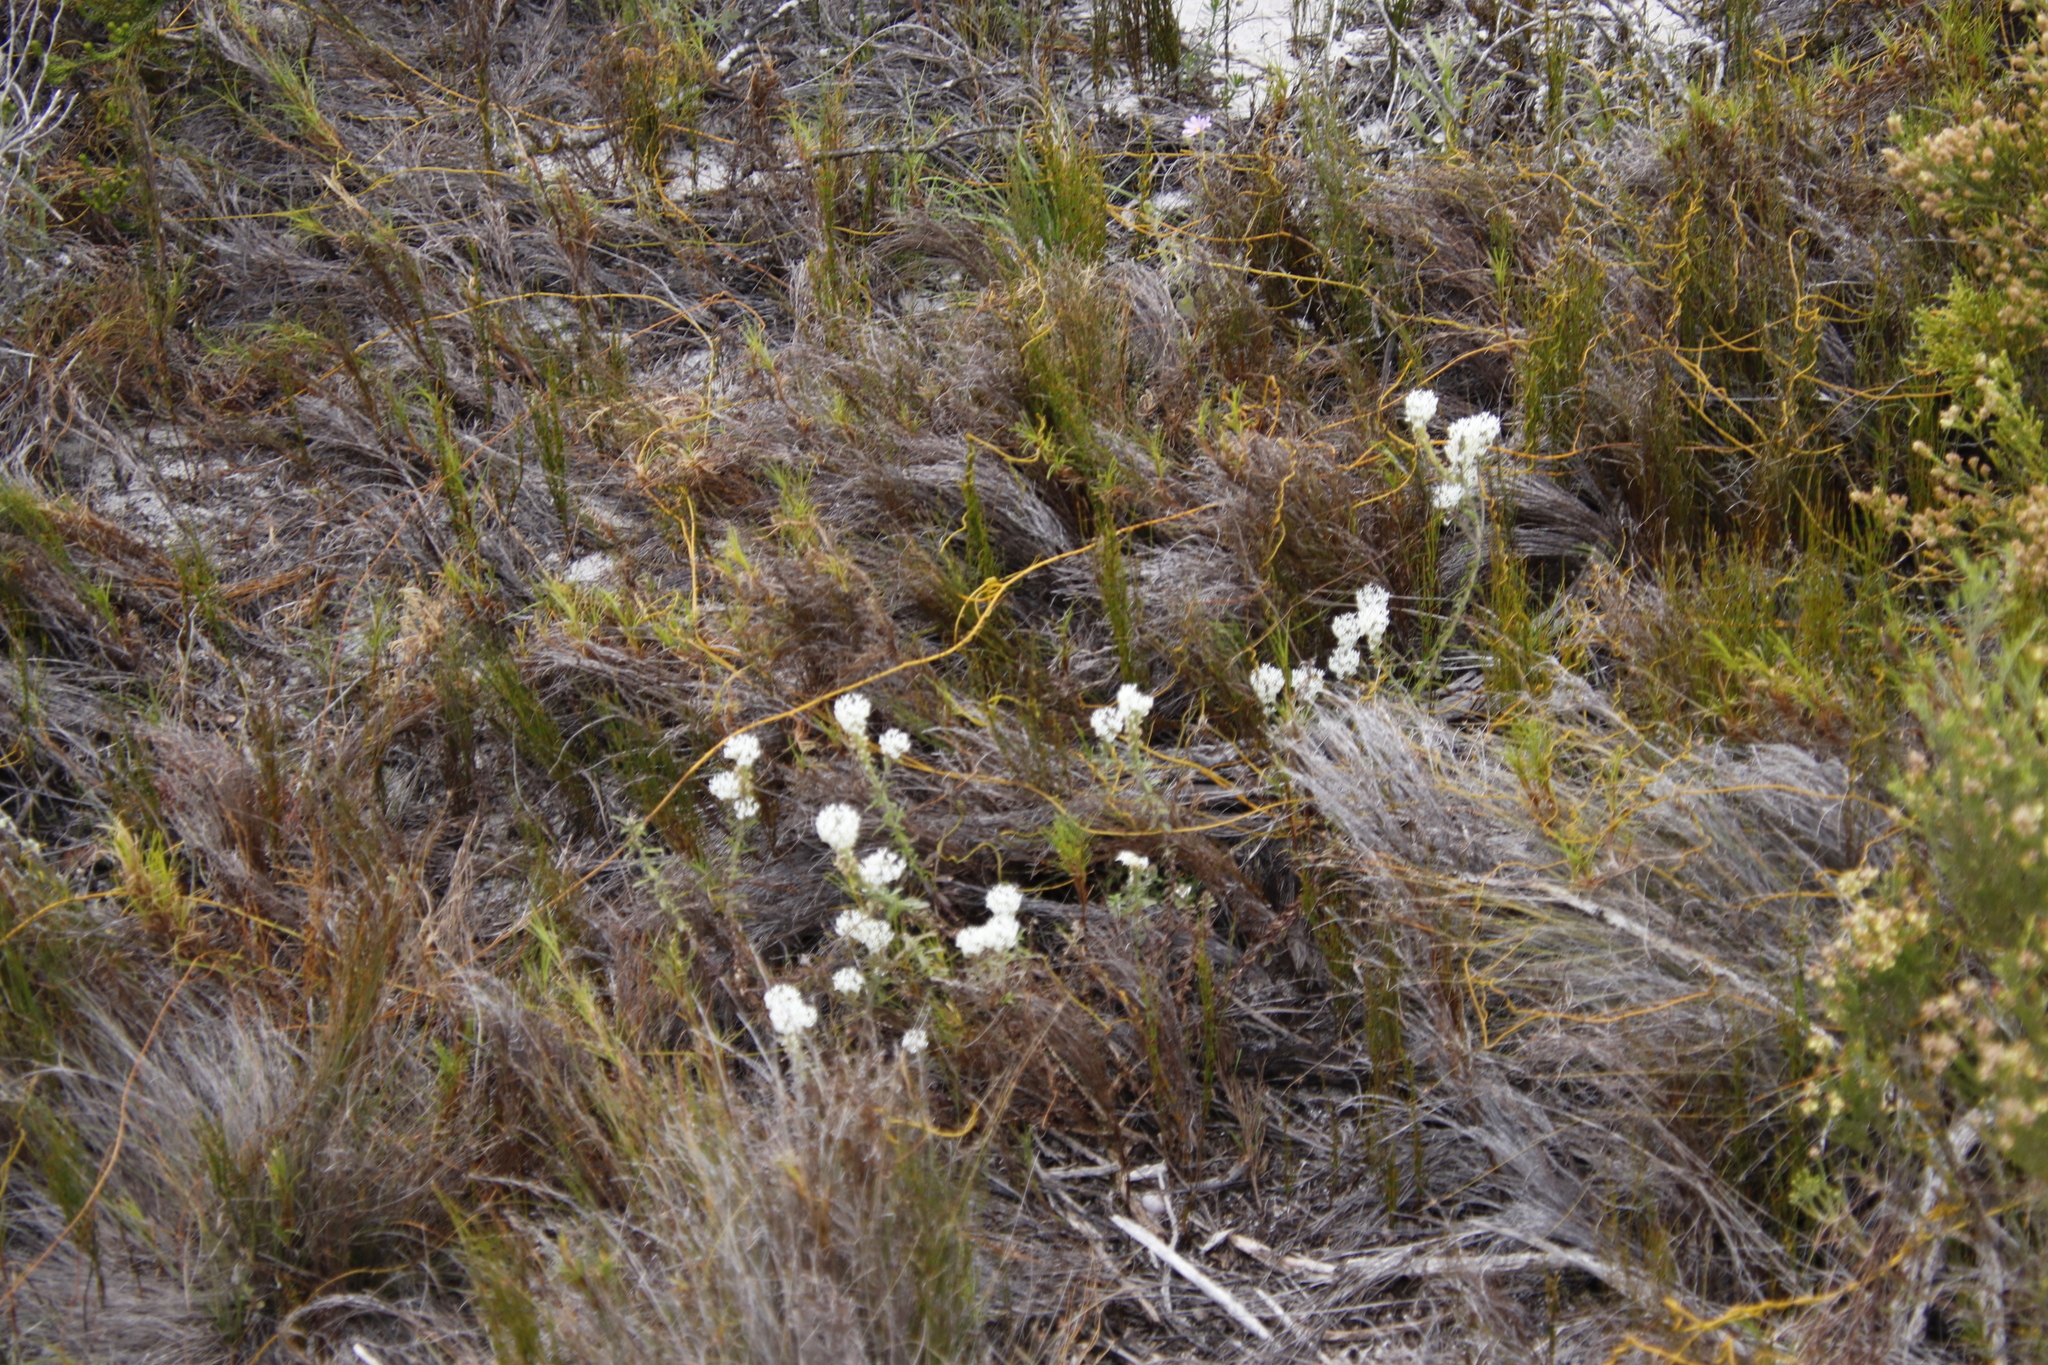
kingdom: Plantae
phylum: Tracheophyta
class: Liliopsida
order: Poales
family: Restionaceae
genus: Restio
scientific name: Restio eleocharis
